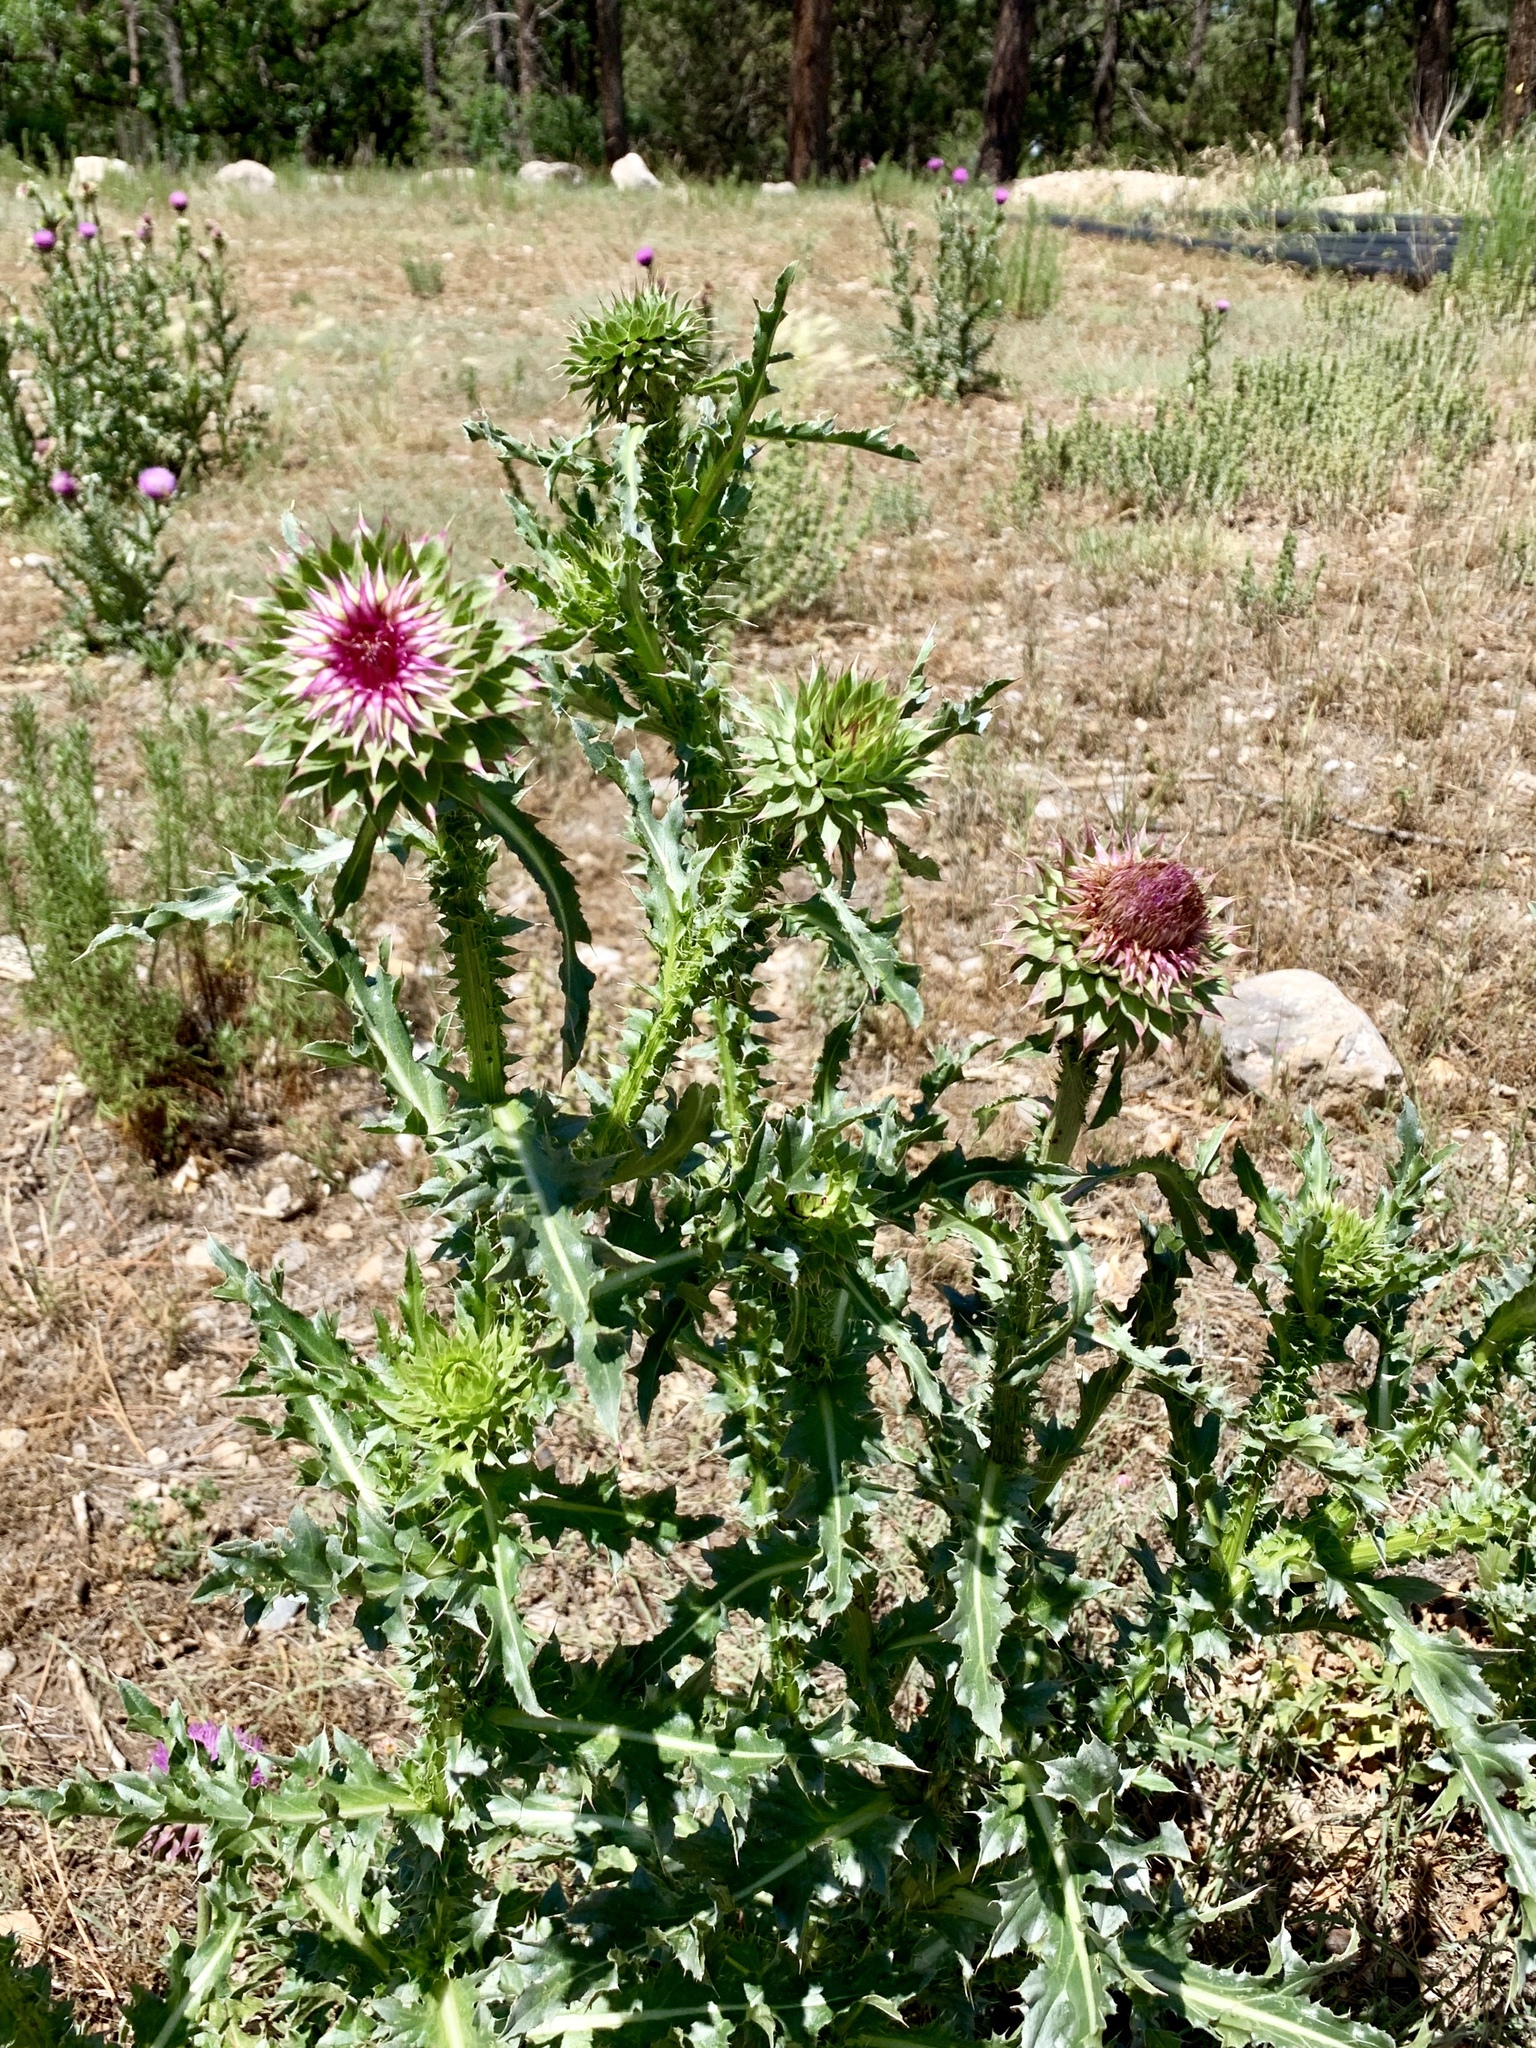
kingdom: Plantae
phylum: Tracheophyta
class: Magnoliopsida
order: Asterales
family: Asteraceae
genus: Carduus
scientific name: Carduus nutans
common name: Musk thistle
